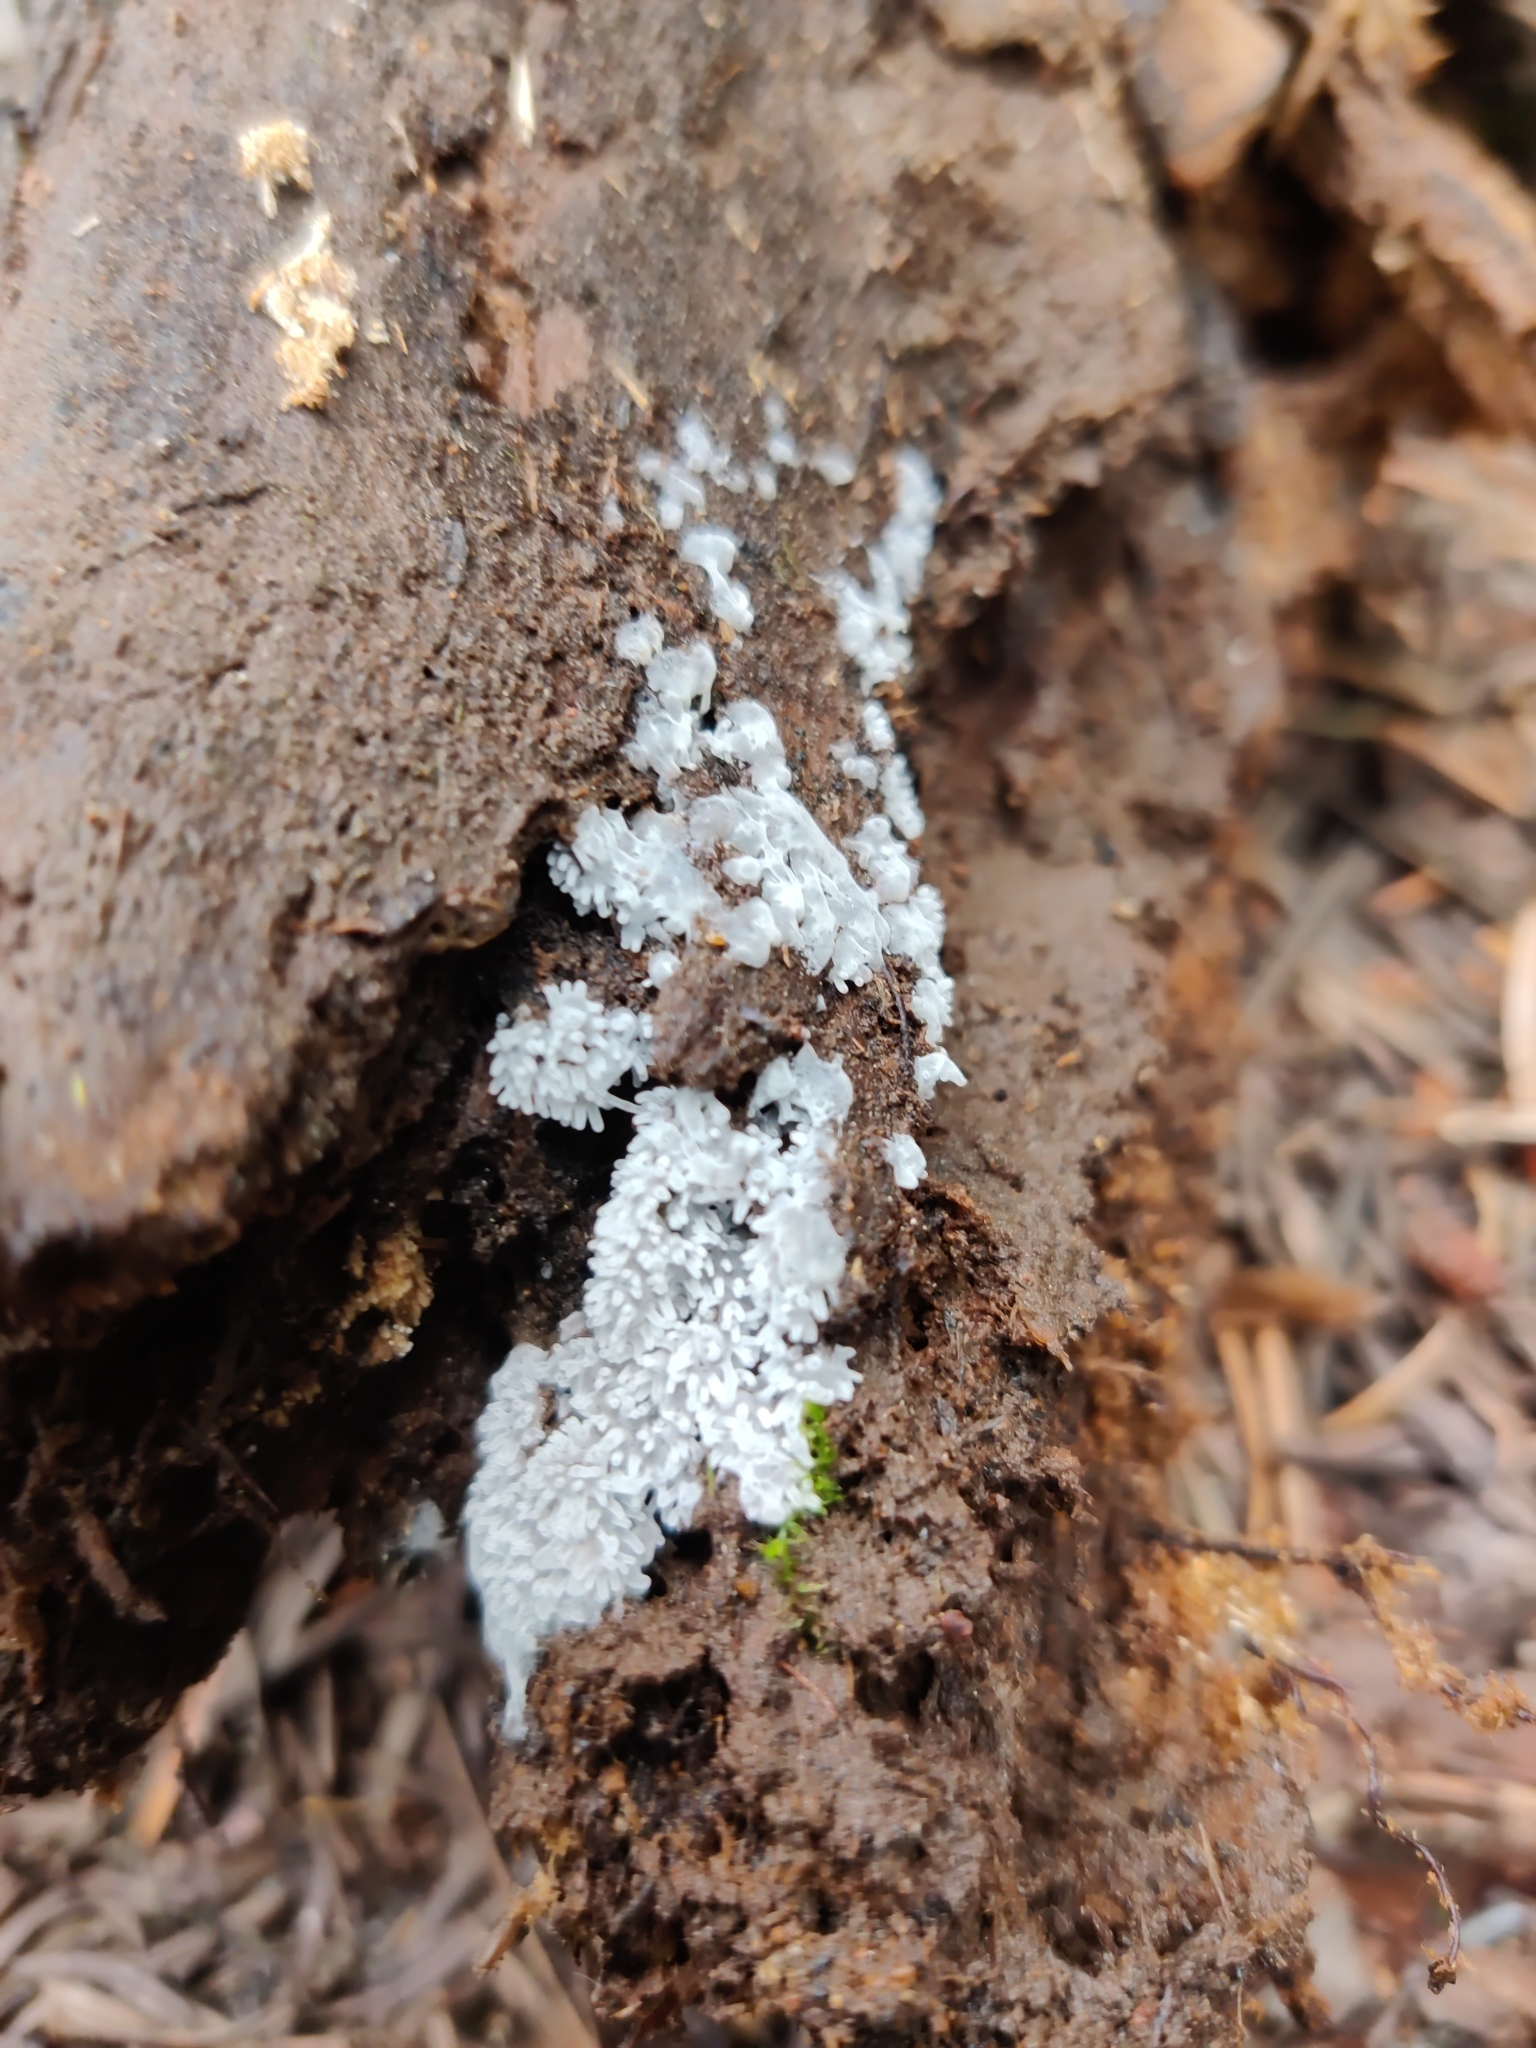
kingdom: Protozoa
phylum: Mycetozoa
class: Protosteliomycetes
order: Ceratiomyxales
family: Ceratiomyxaceae
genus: Ceratiomyxa
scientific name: Ceratiomyxa fruticulosa
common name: Honeycomb coral slime mold
